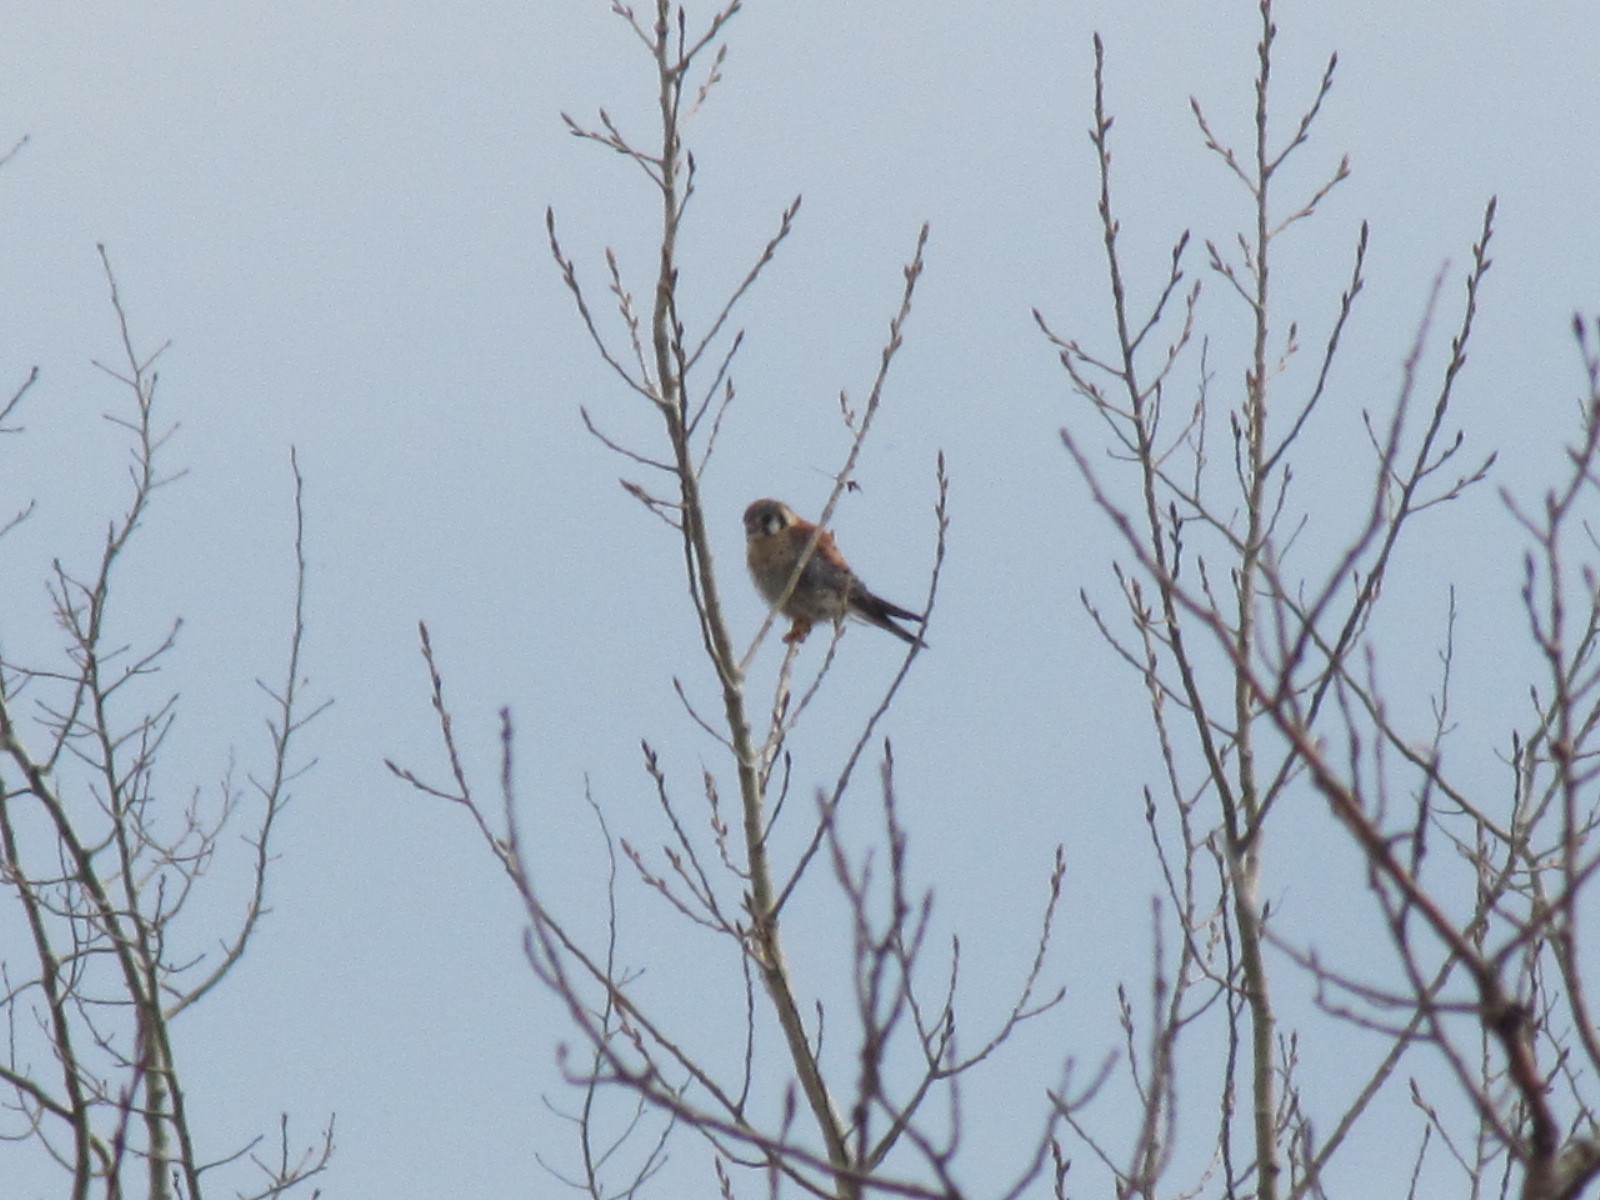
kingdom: Animalia
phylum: Chordata
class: Aves
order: Falconiformes
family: Falconidae
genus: Falco
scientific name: Falco sparverius
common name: American kestrel
